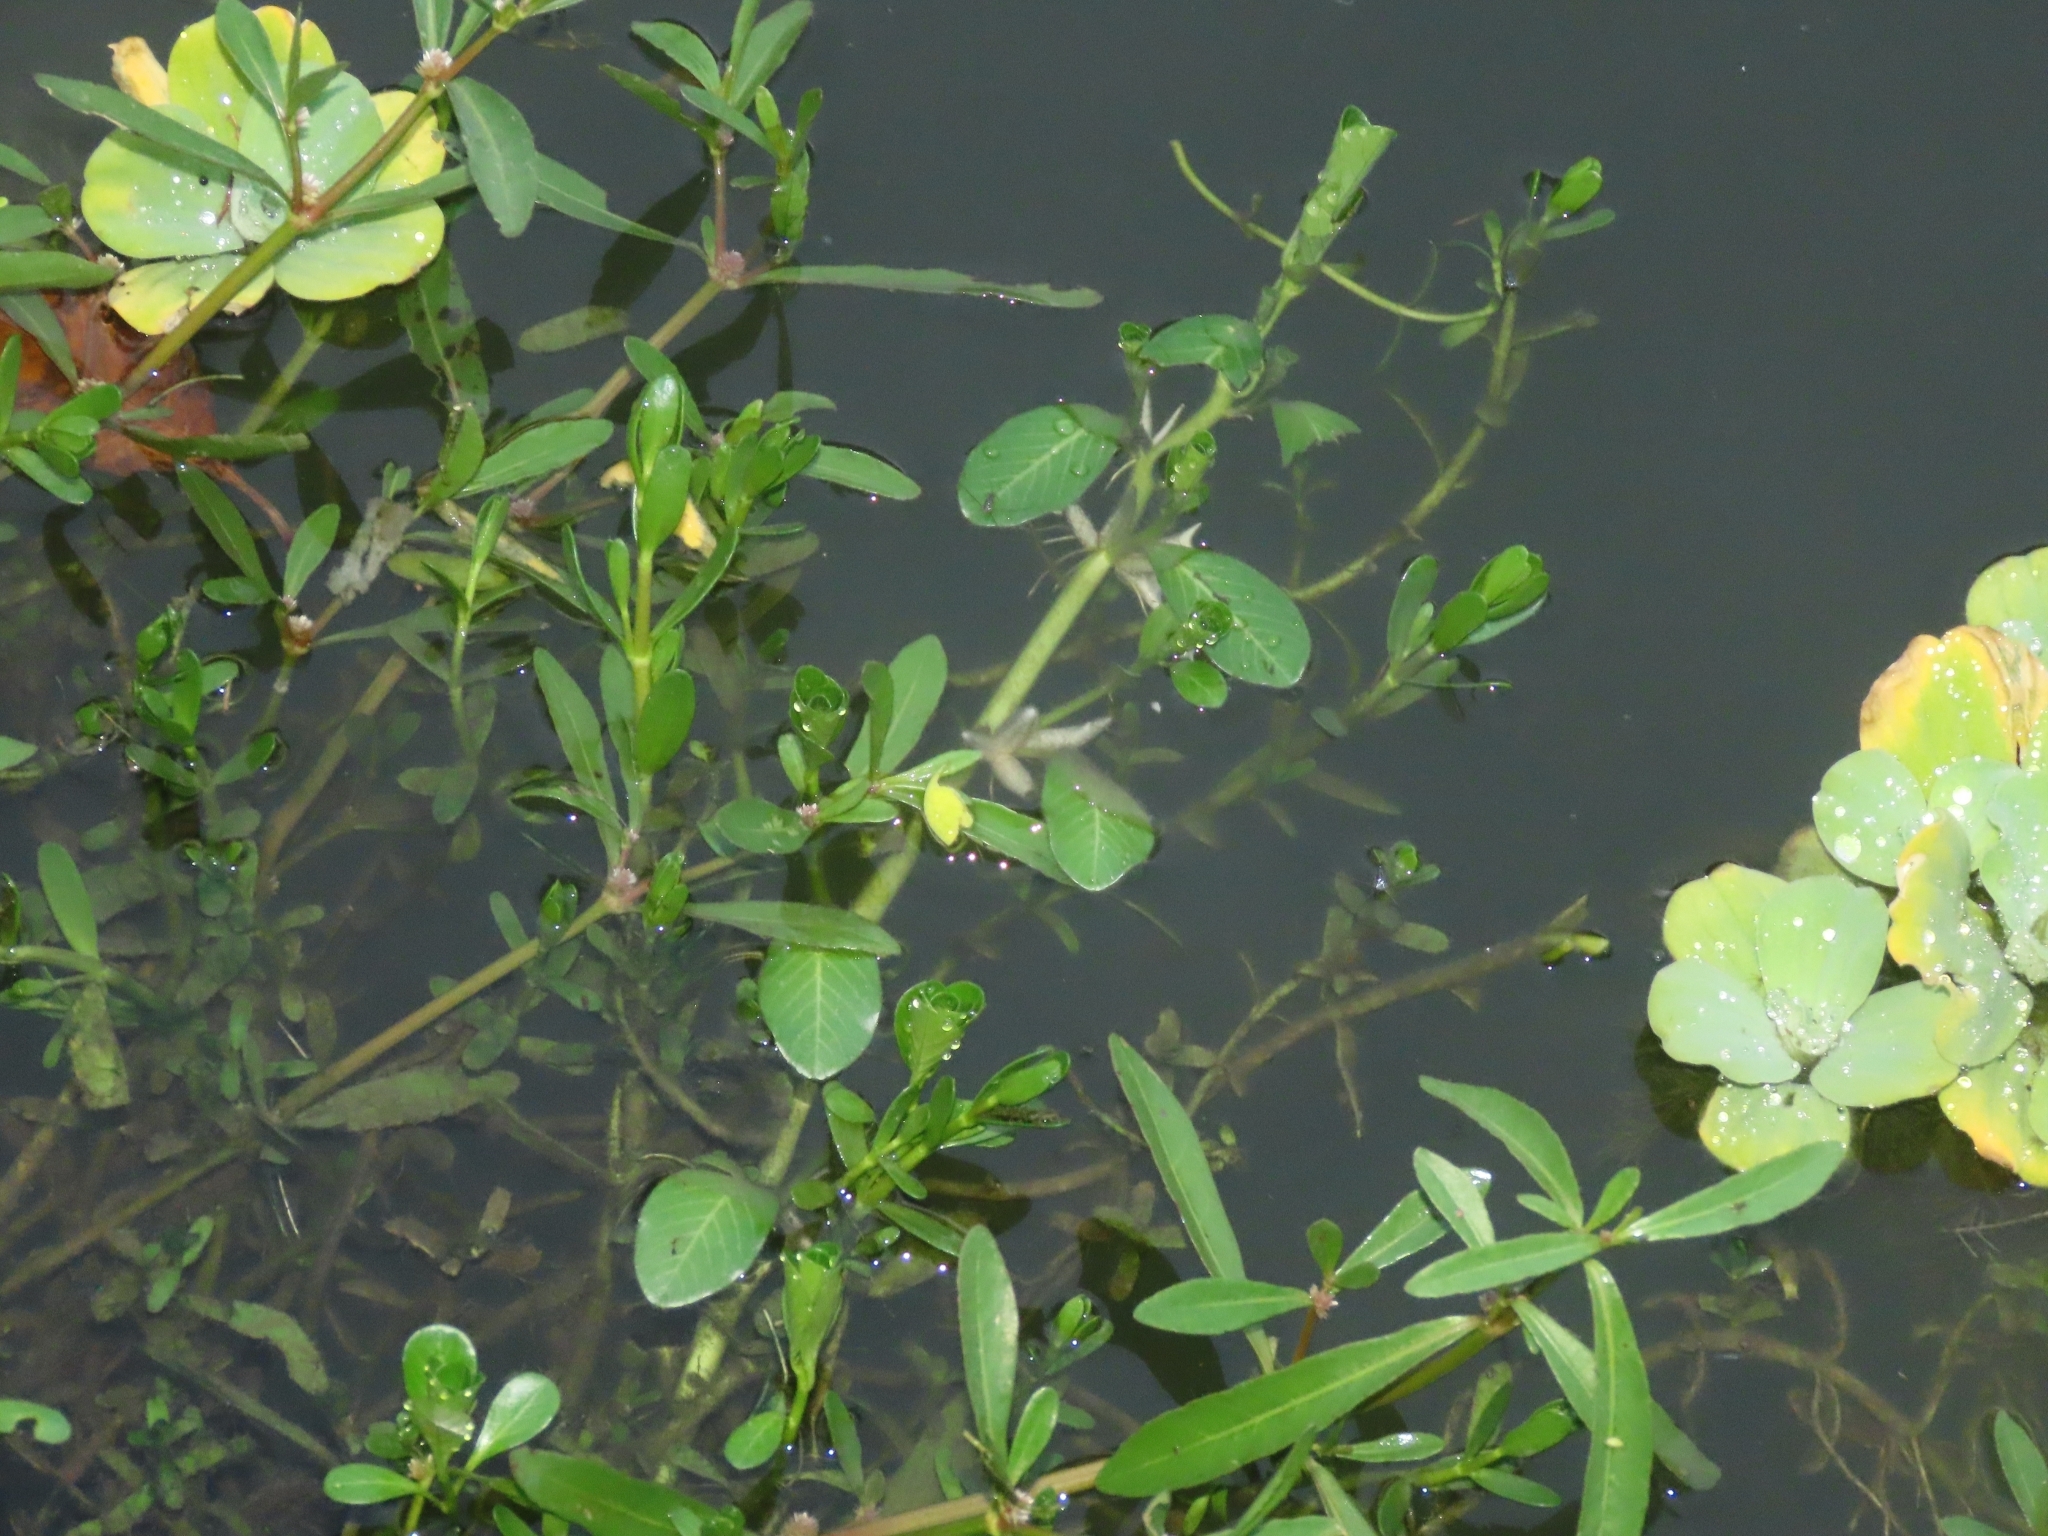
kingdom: Plantae
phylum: Tracheophyta
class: Magnoliopsida
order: Myrtales
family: Onagraceae
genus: Ludwigia
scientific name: Ludwigia adscendens
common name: Creeping water primrose
